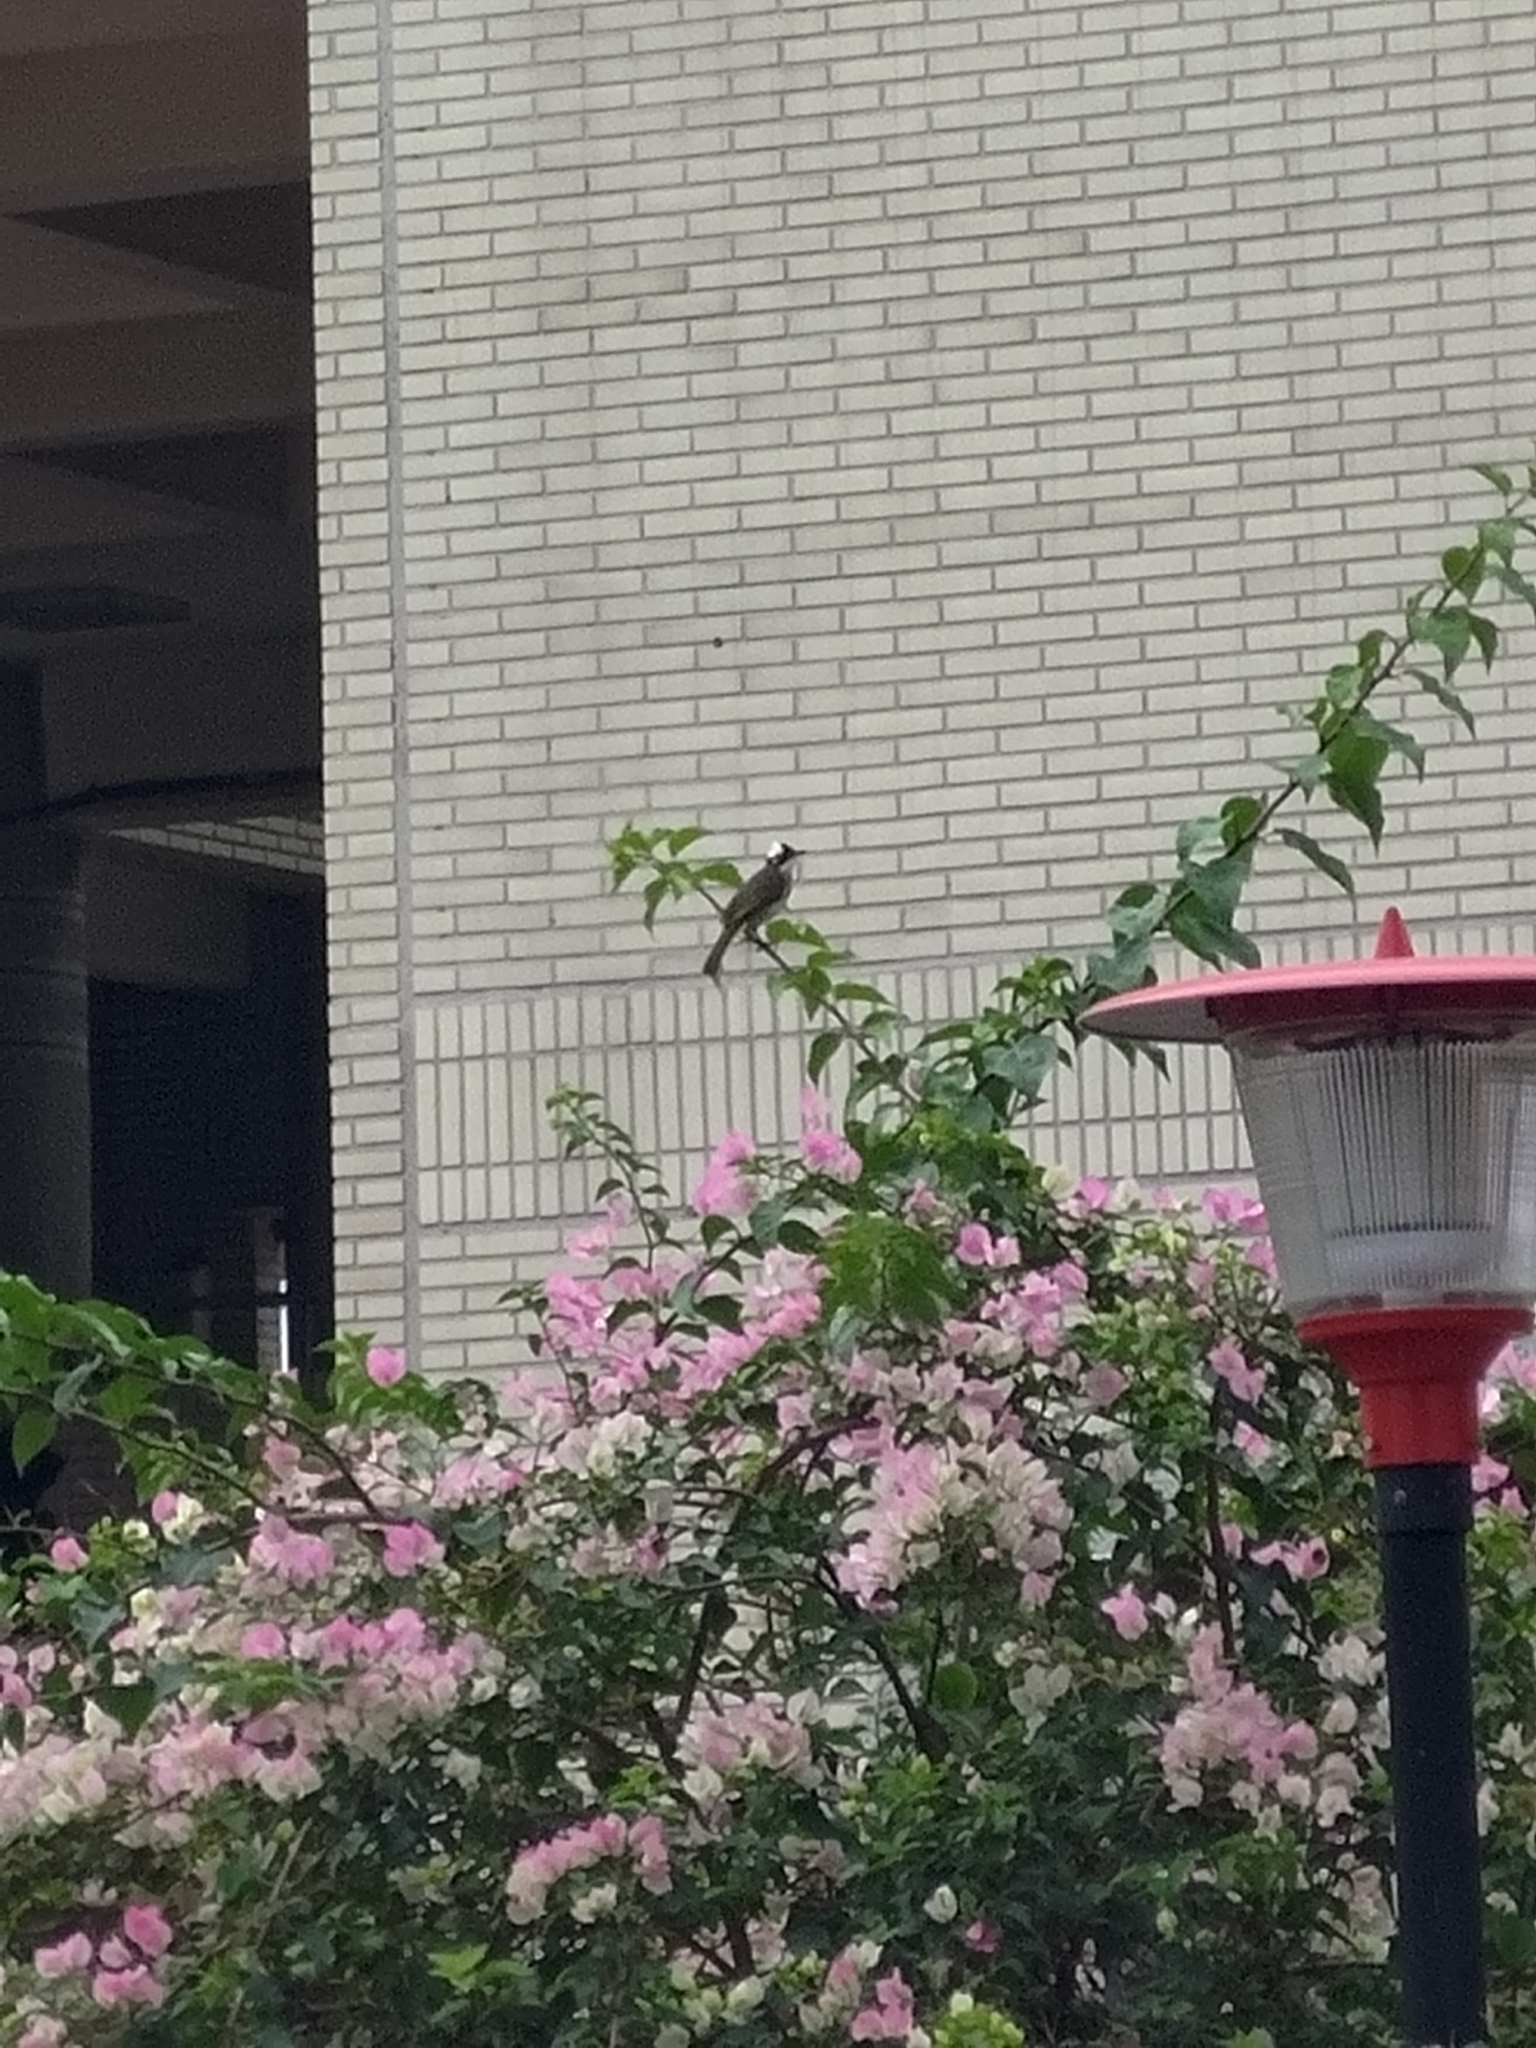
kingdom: Animalia
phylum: Chordata
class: Aves
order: Passeriformes
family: Pycnonotidae
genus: Pycnonotus
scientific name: Pycnonotus sinensis
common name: Light-vented bulbul
